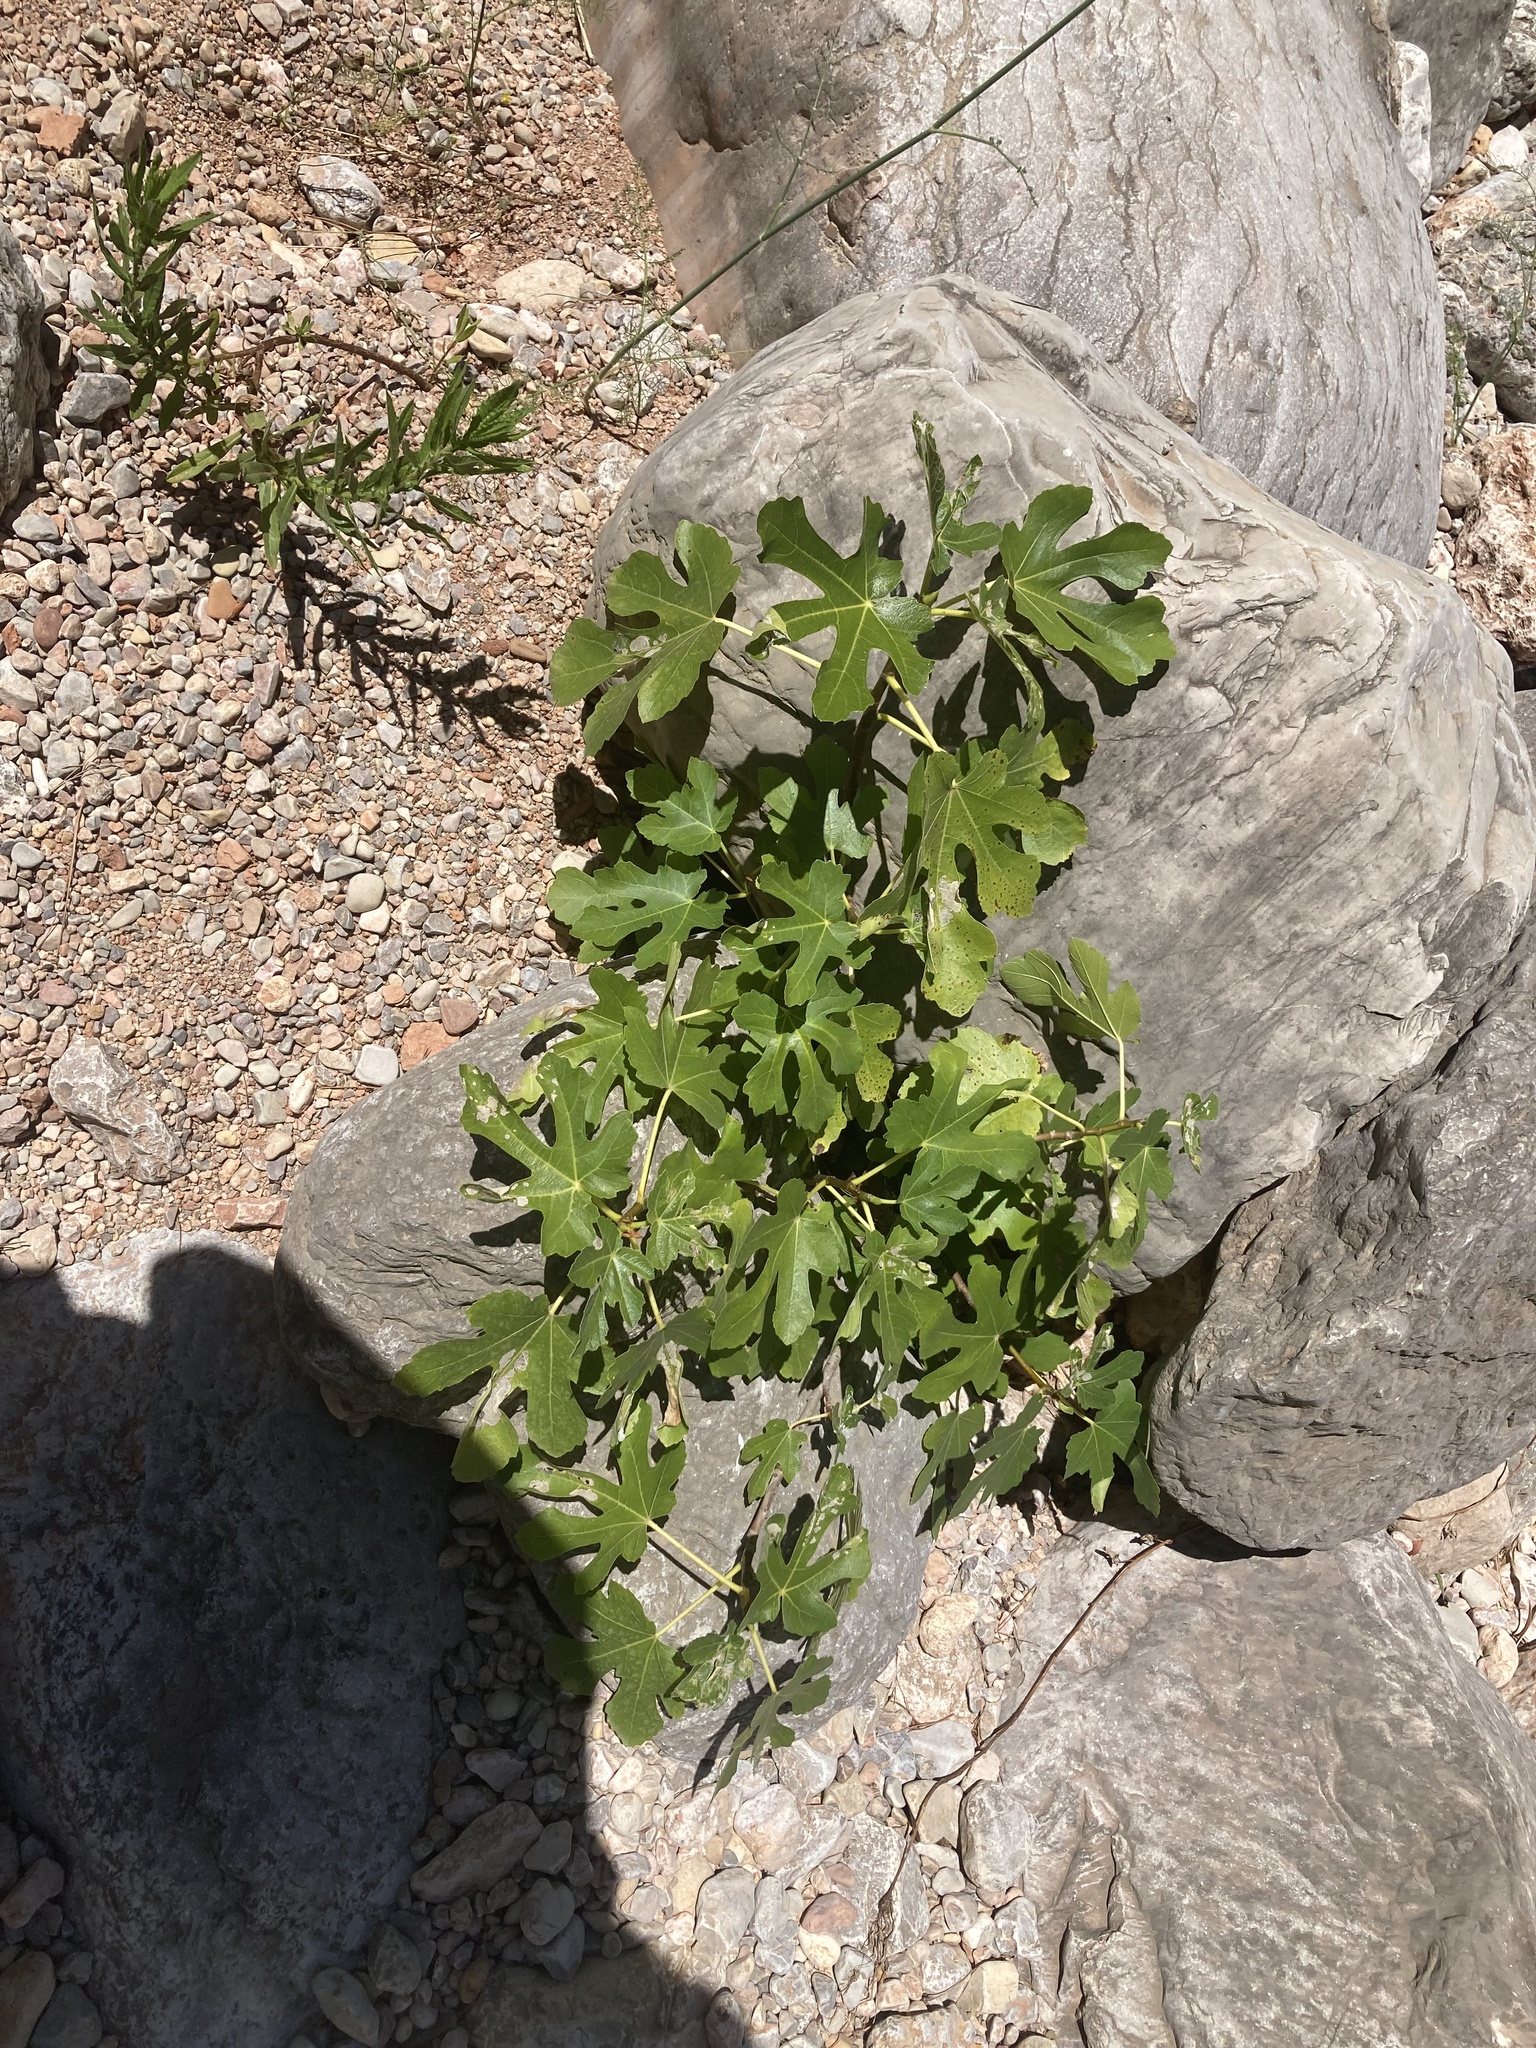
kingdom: Plantae
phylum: Tracheophyta
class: Magnoliopsida
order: Rosales
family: Moraceae
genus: Ficus
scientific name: Ficus carica
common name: Fig
